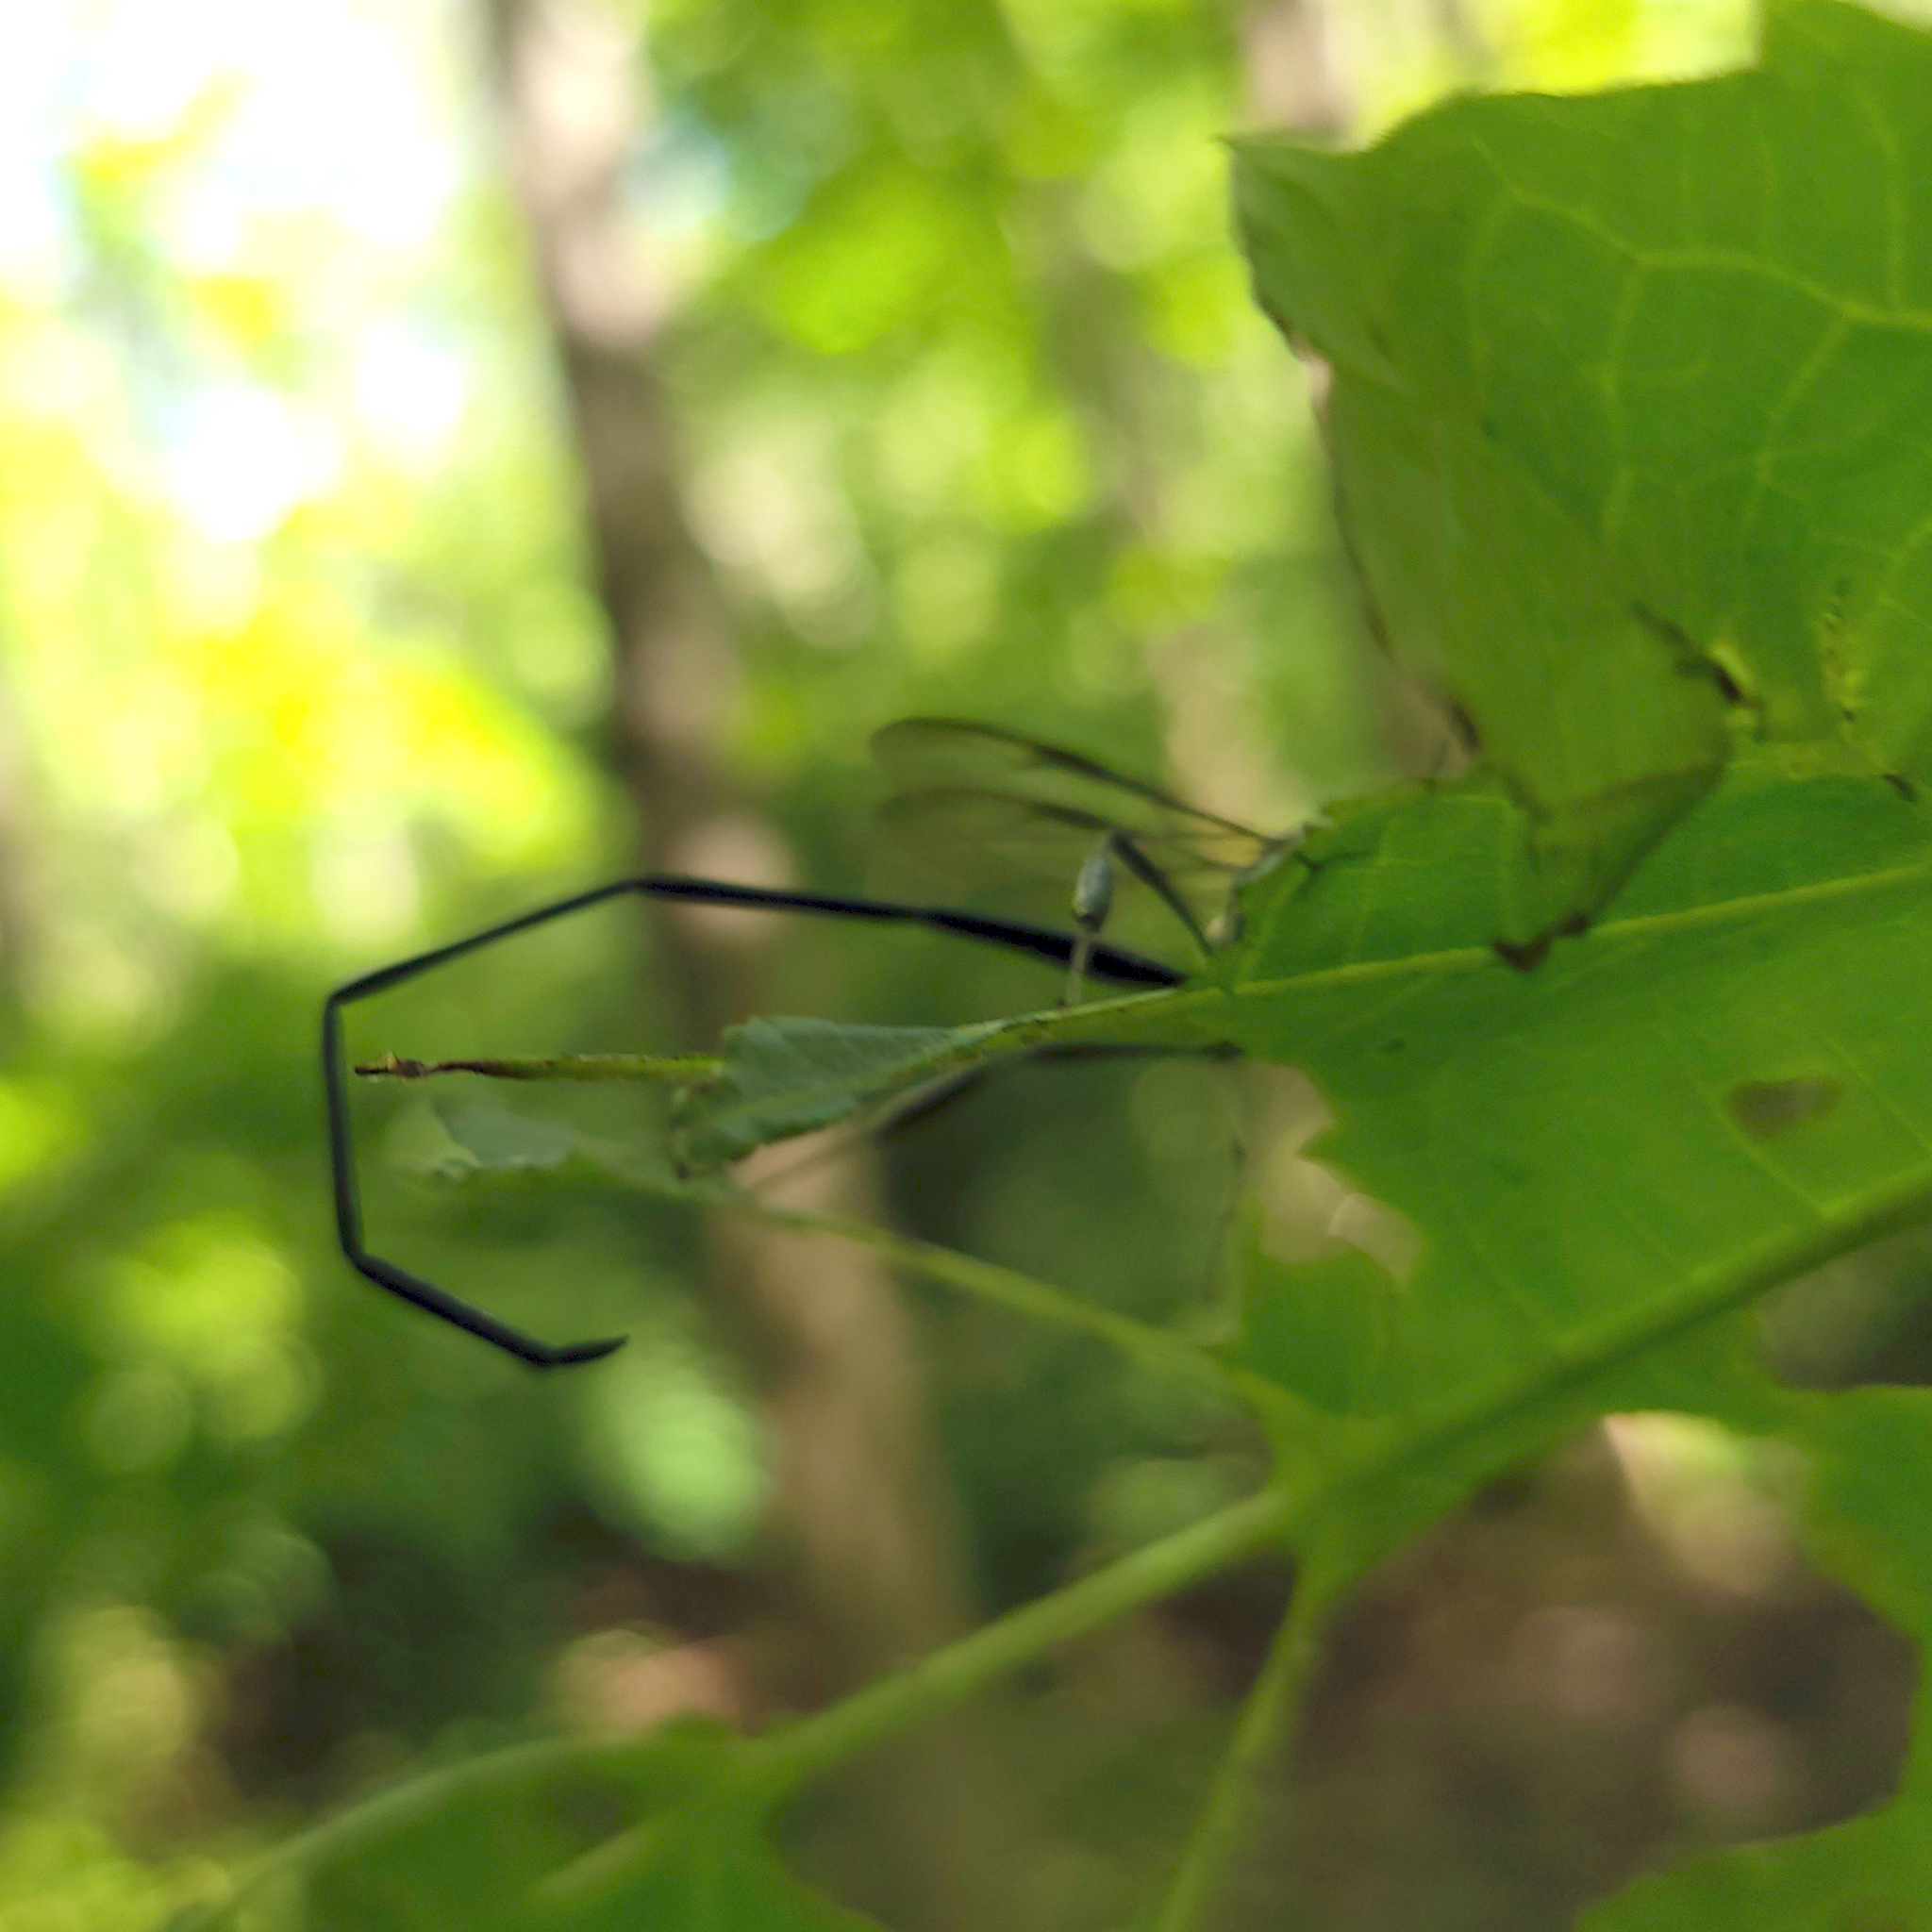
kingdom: Animalia
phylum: Arthropoda
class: Insecta
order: Hymenoptera
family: Pelecinidae
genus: Pelecinus
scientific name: Pelecinus polyturator
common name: American pelecinid wasp
